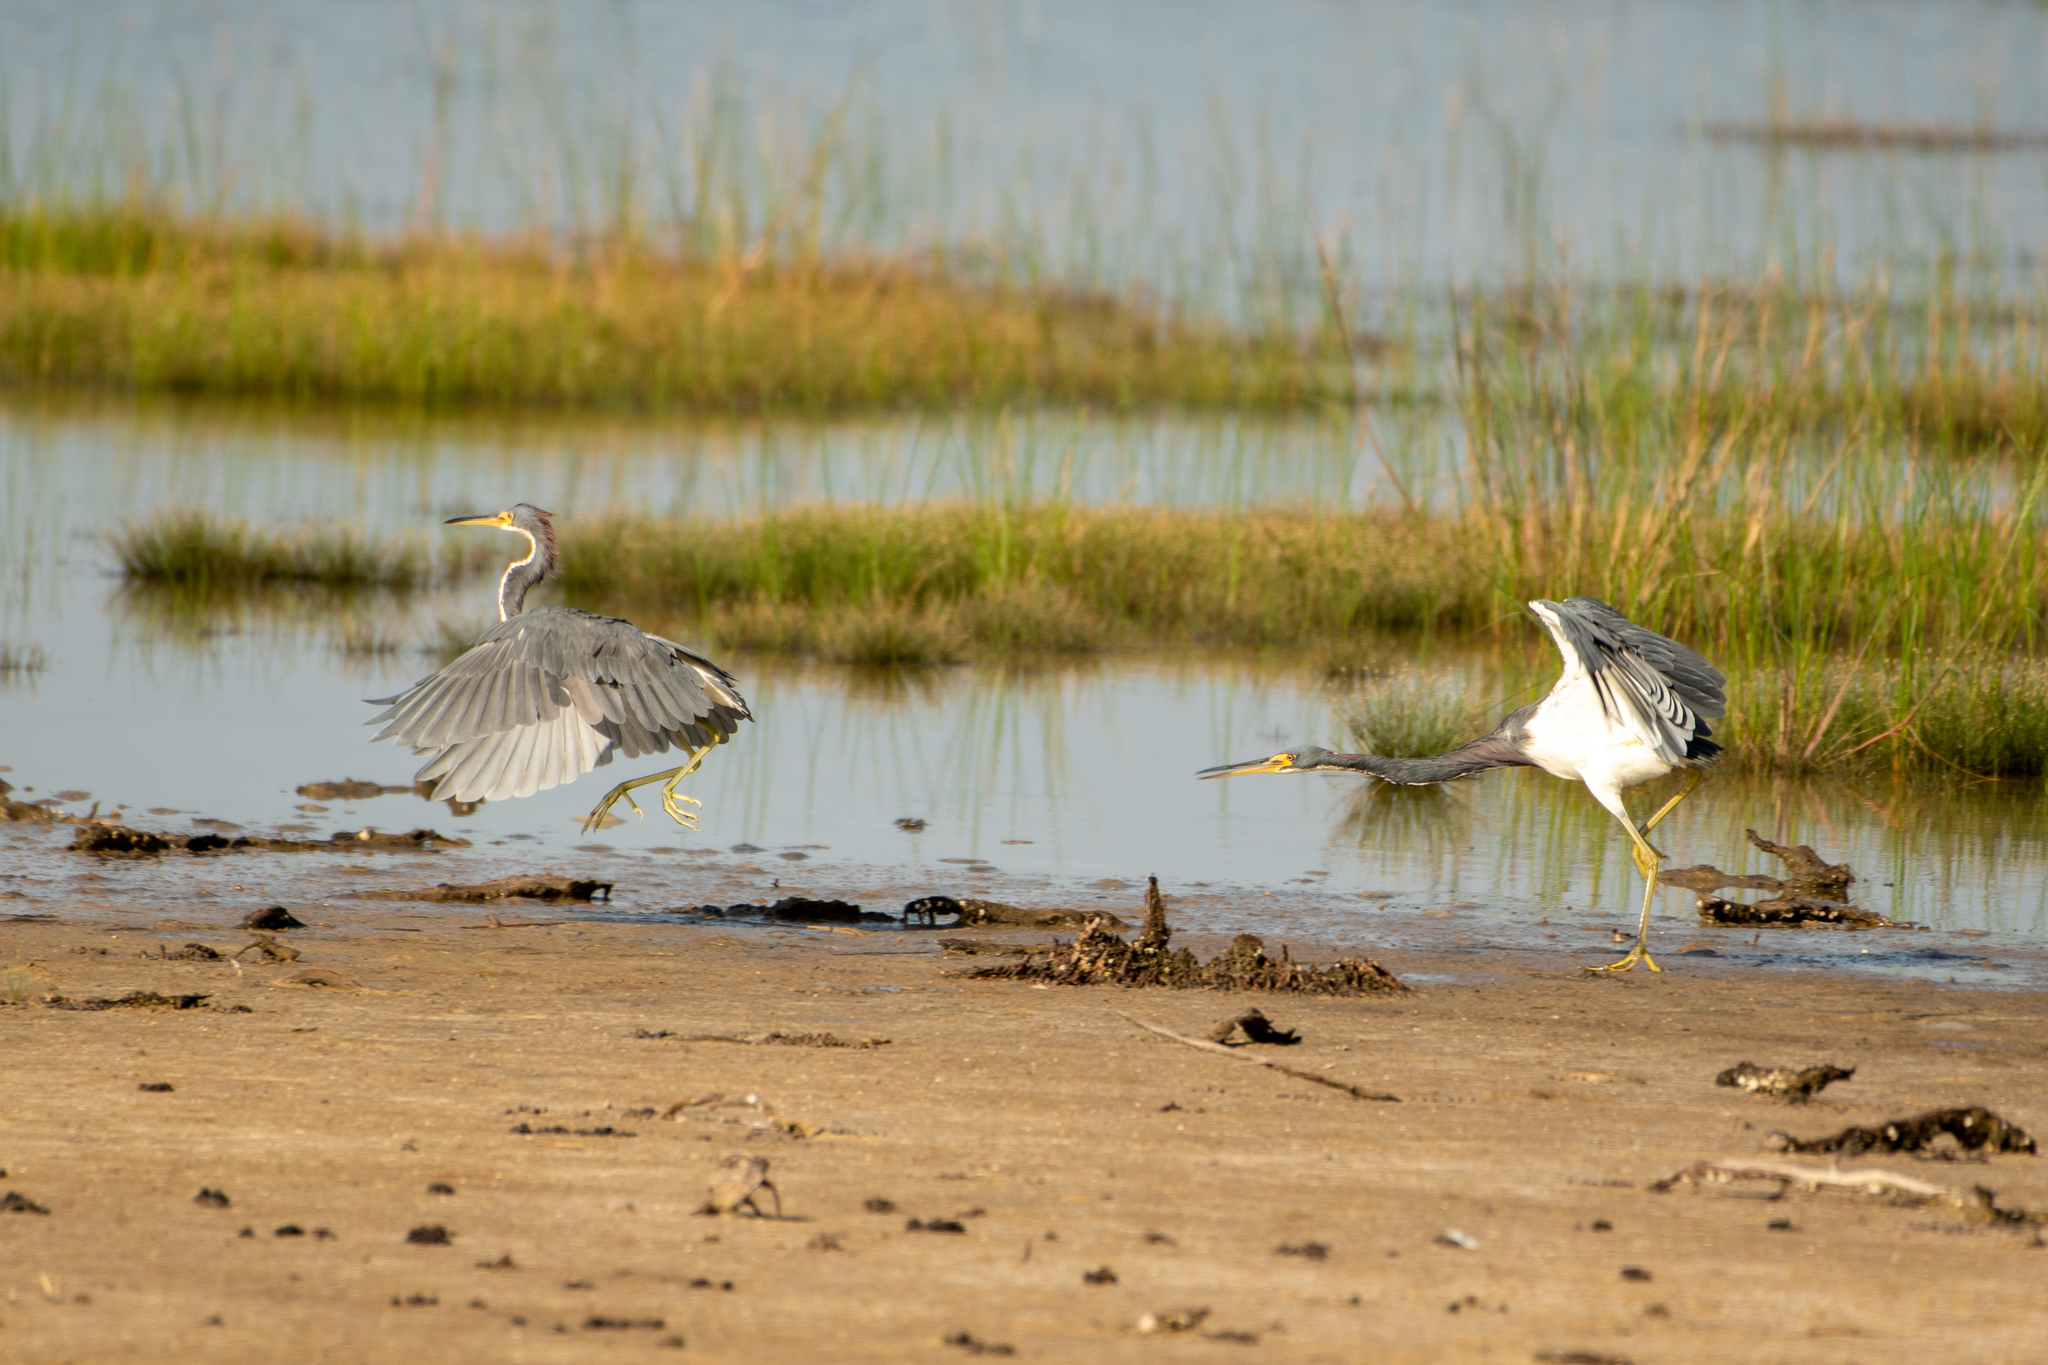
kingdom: Animalia
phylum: Chordata
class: Aves
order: Pelecaniformes
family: Ardeidae
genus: Egretta
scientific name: Egretta tricolor
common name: Tricolored heron
